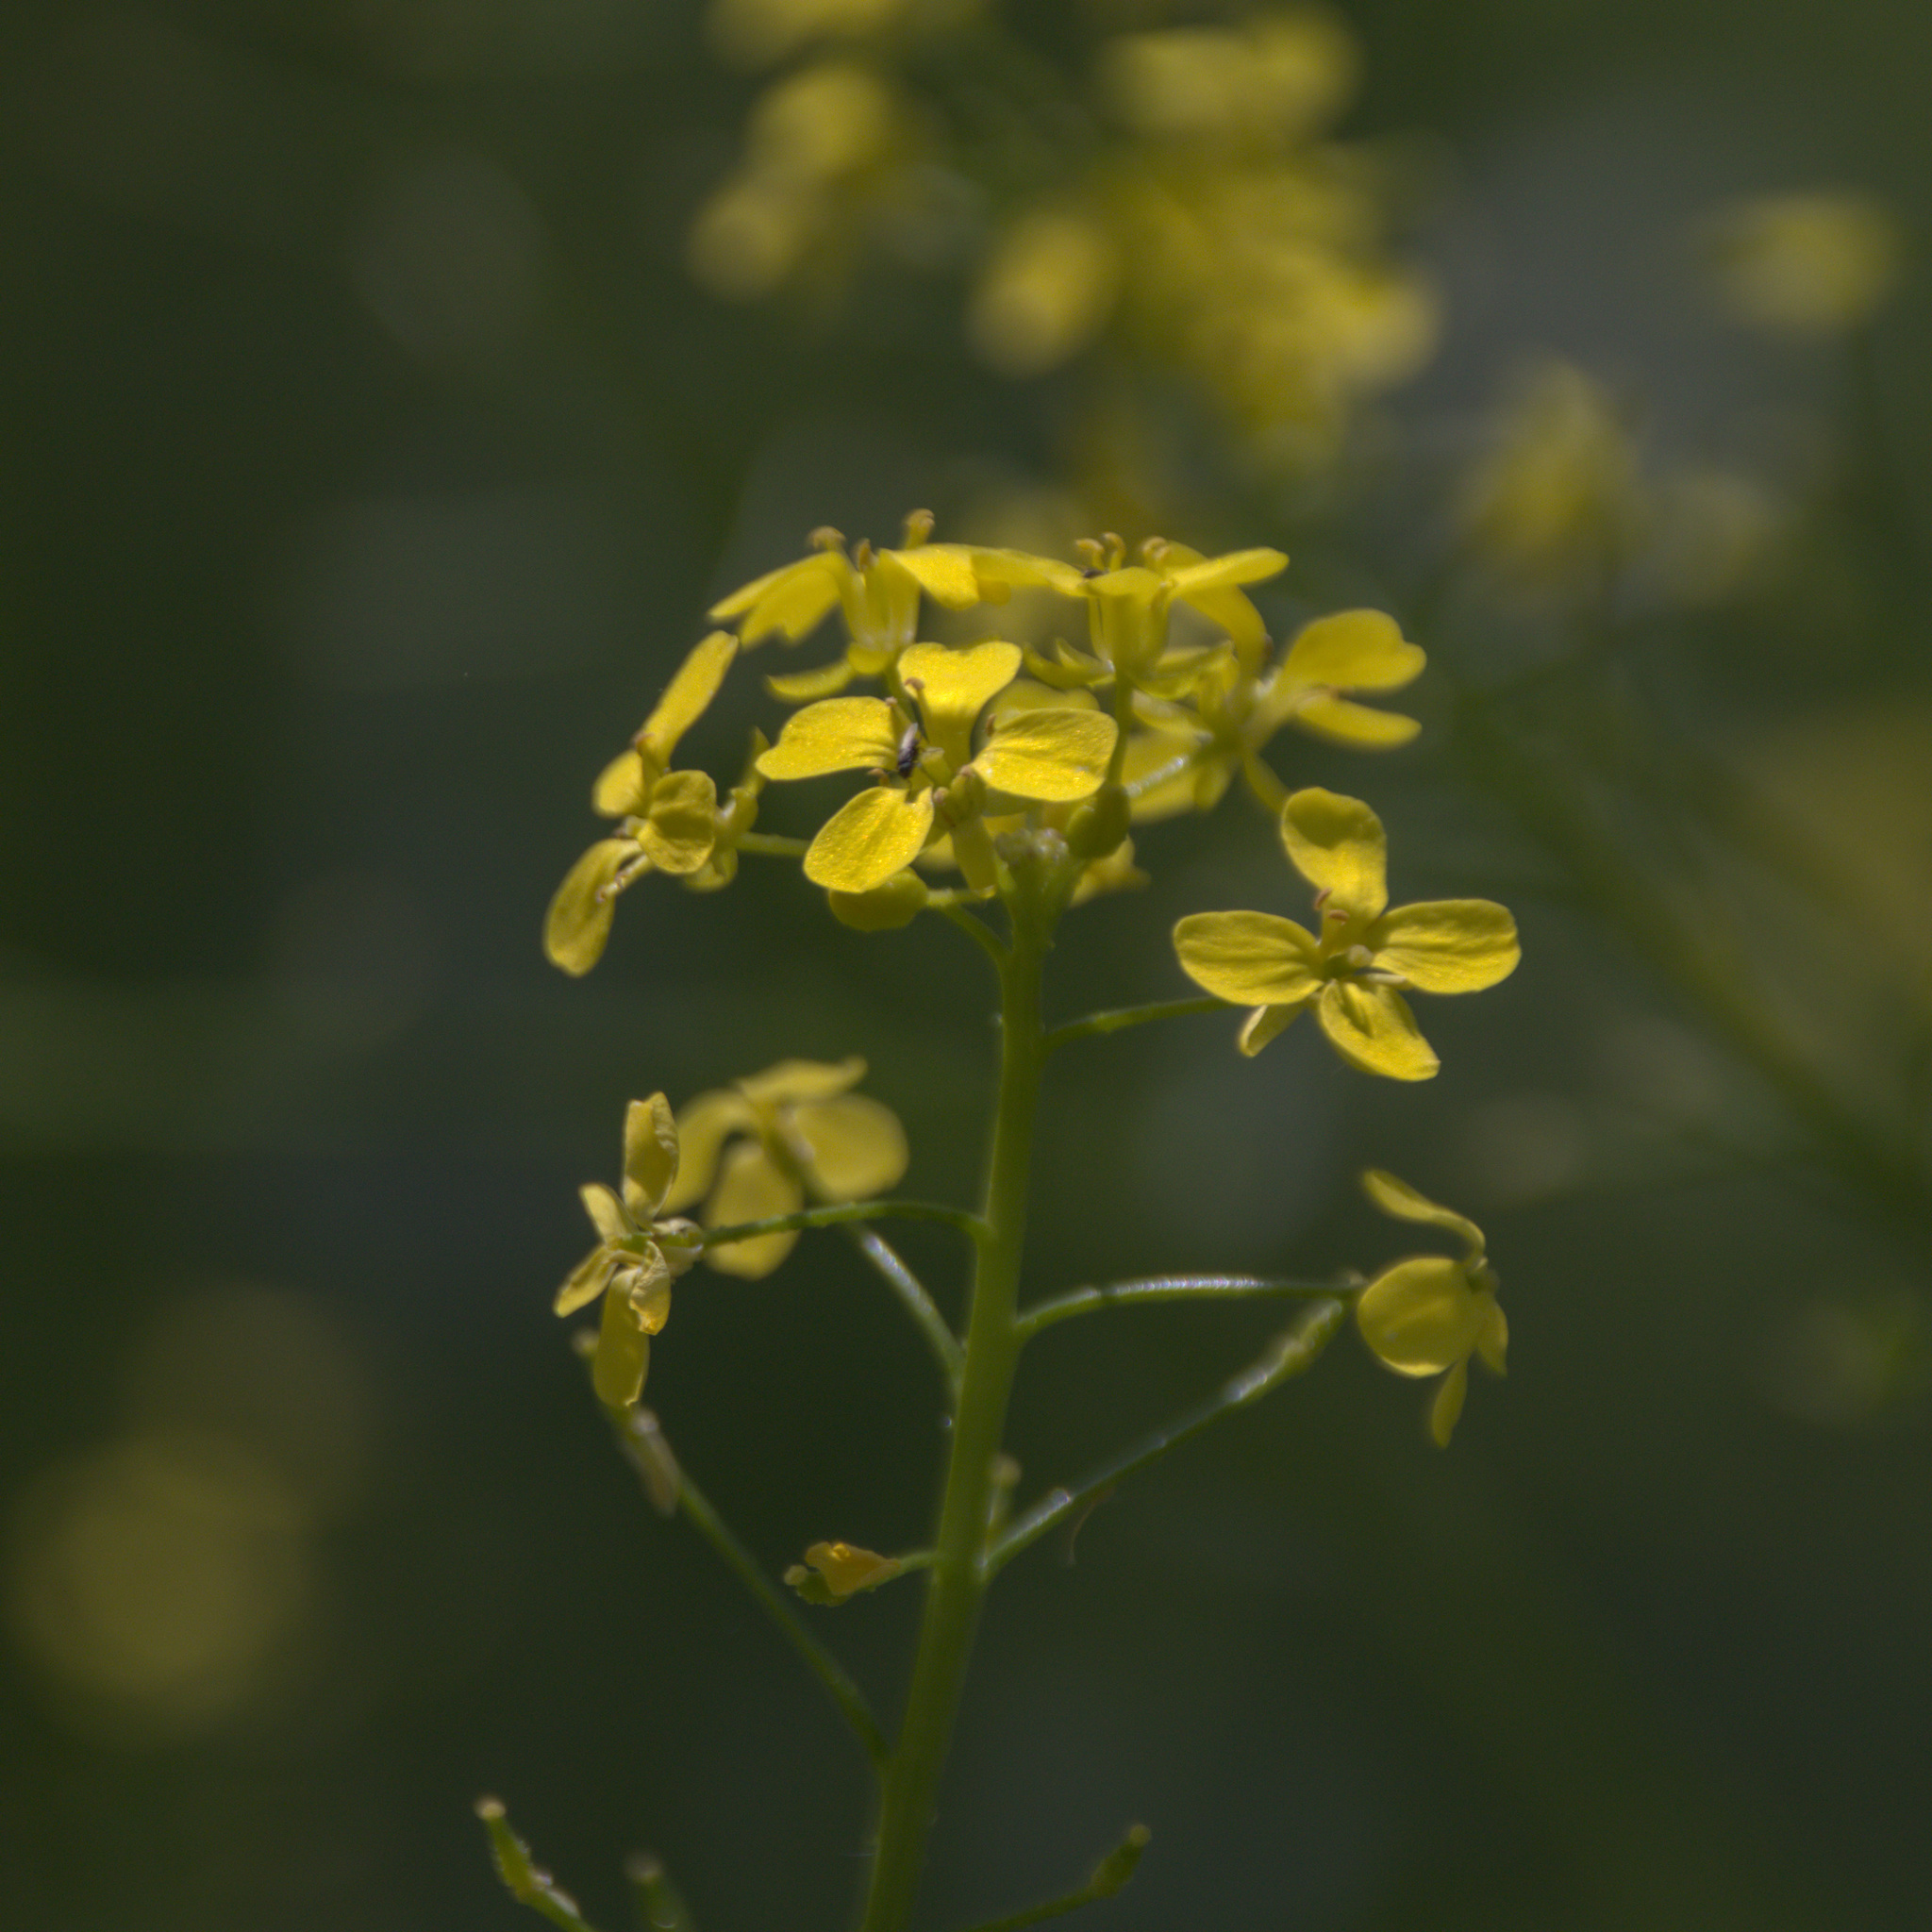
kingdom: Plantae
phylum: Tracheophyta
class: Magnoliopsida
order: Brassicales
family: Brassicaceae
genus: Bunias
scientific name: Bunias orientalis
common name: Warty-cabbage
